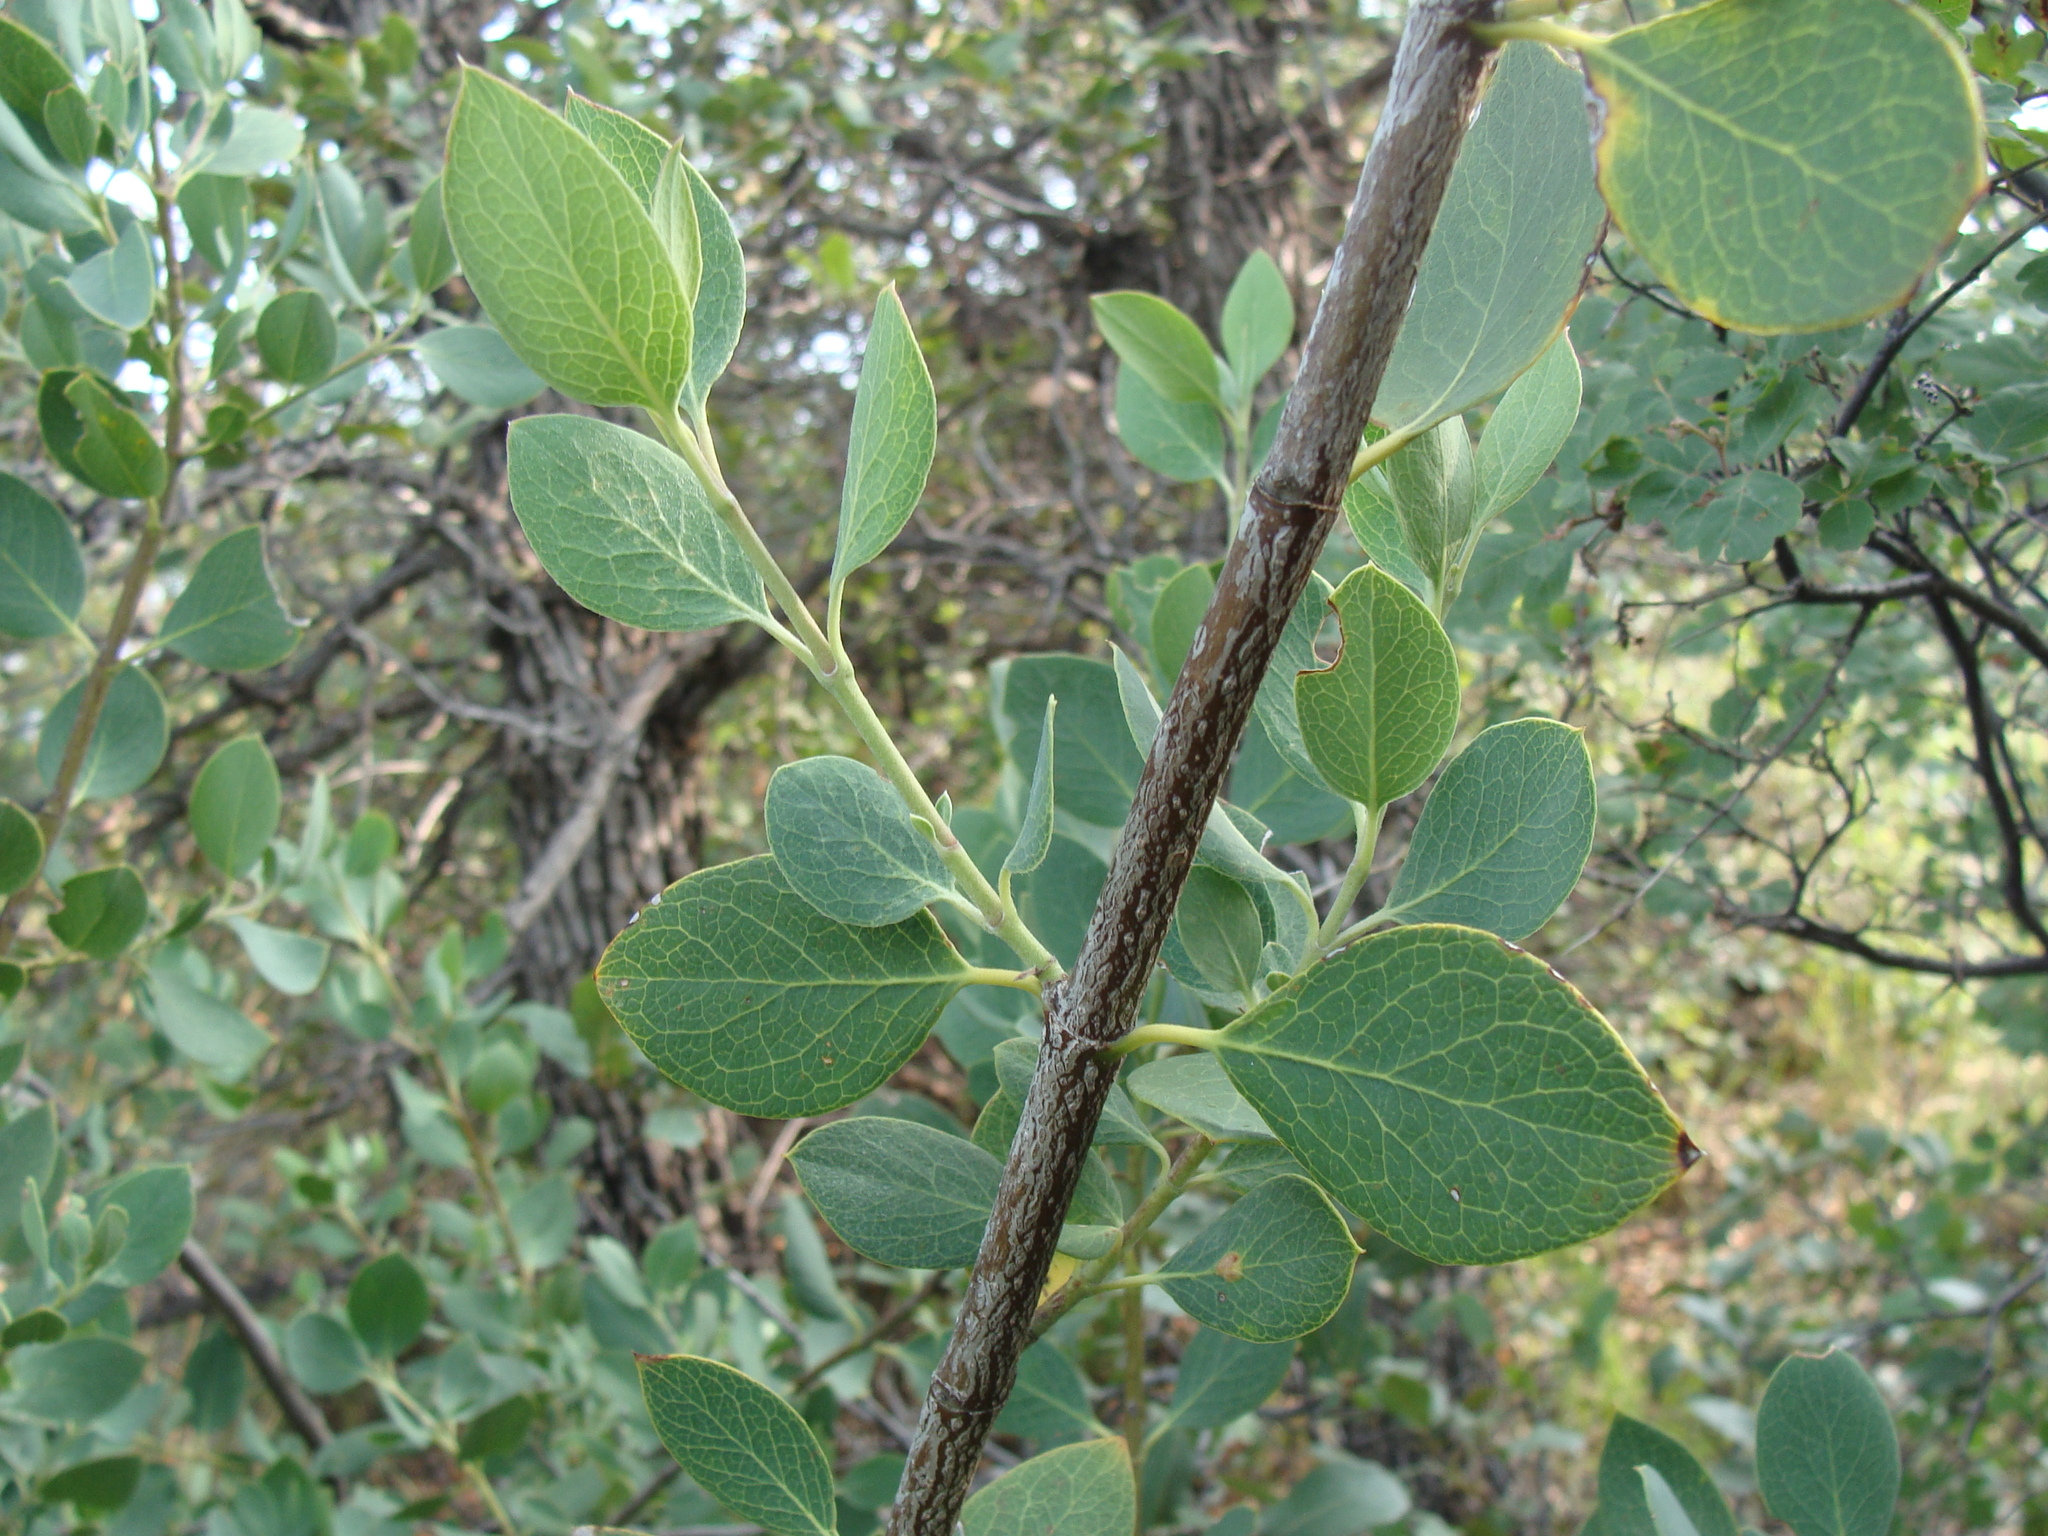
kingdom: Plantae
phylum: Tracheophyta
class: Magnoliopsida
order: Garryales
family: Garryaceae
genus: Garrya
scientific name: Garrya wrightii
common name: Wright's silktassel
